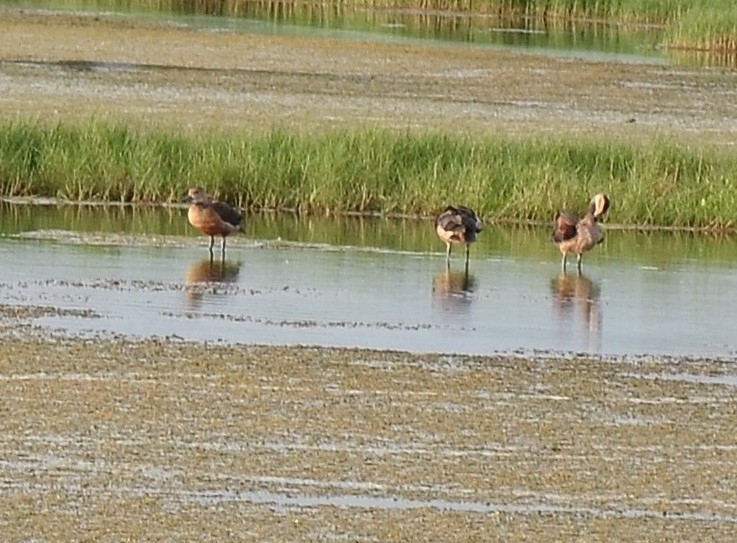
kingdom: Animalia
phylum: Chordata
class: Aves
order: Anseriformes
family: Anatidae
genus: Dendrocygna
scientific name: Dendrocygna javanica
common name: Lesser whistling-duck
